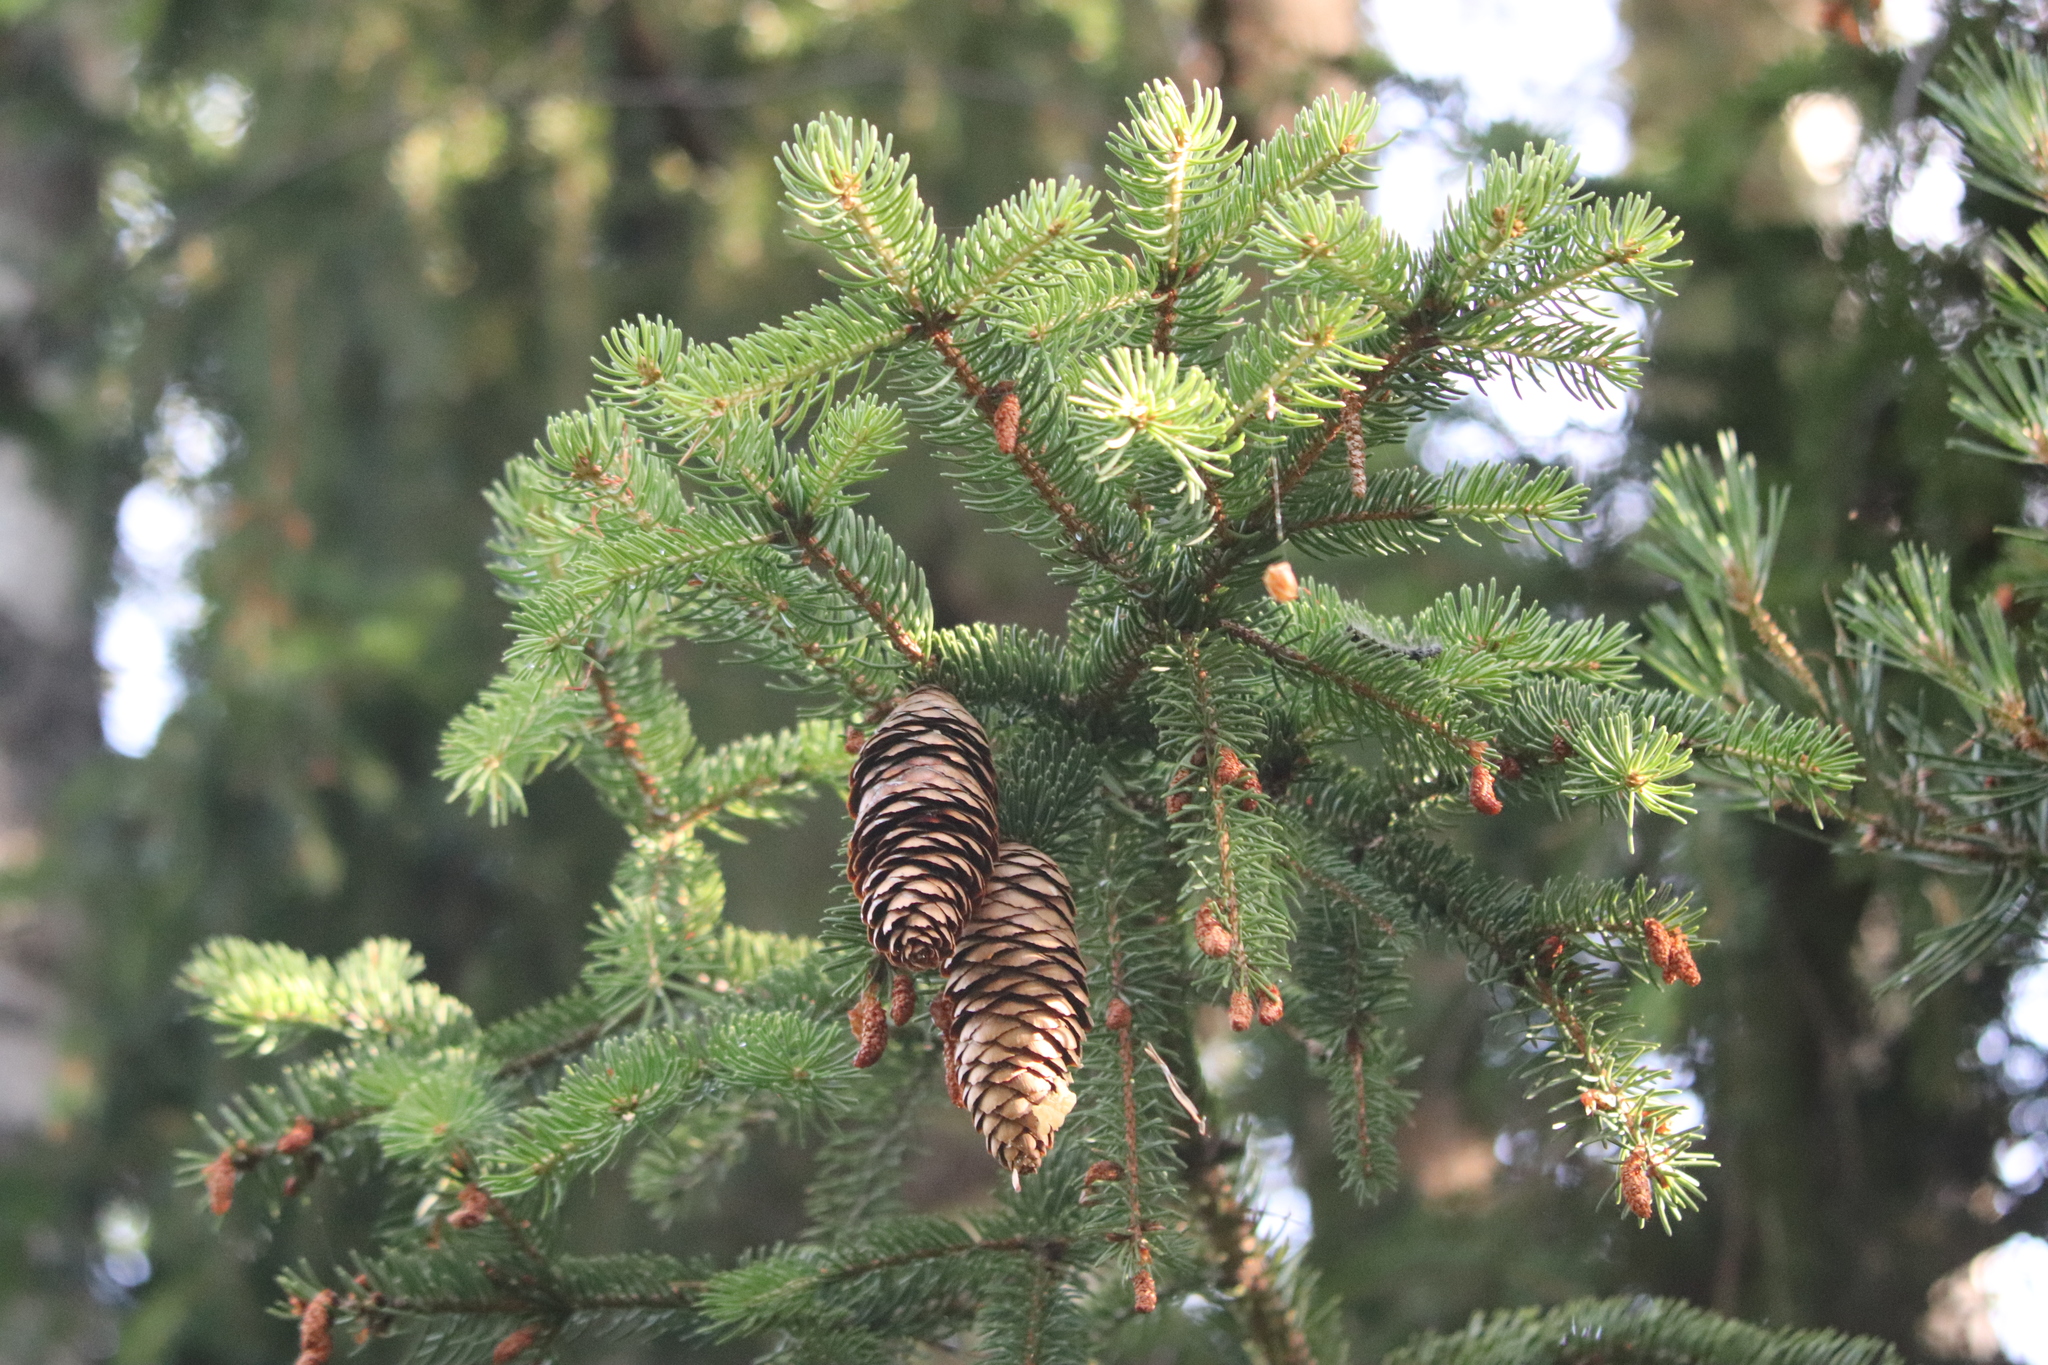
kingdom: Plantae
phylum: Tracheophyta
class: Pinopsida
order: Pinales
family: Pinaceae
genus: Picea
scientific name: Picea abies
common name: Norway spruce
